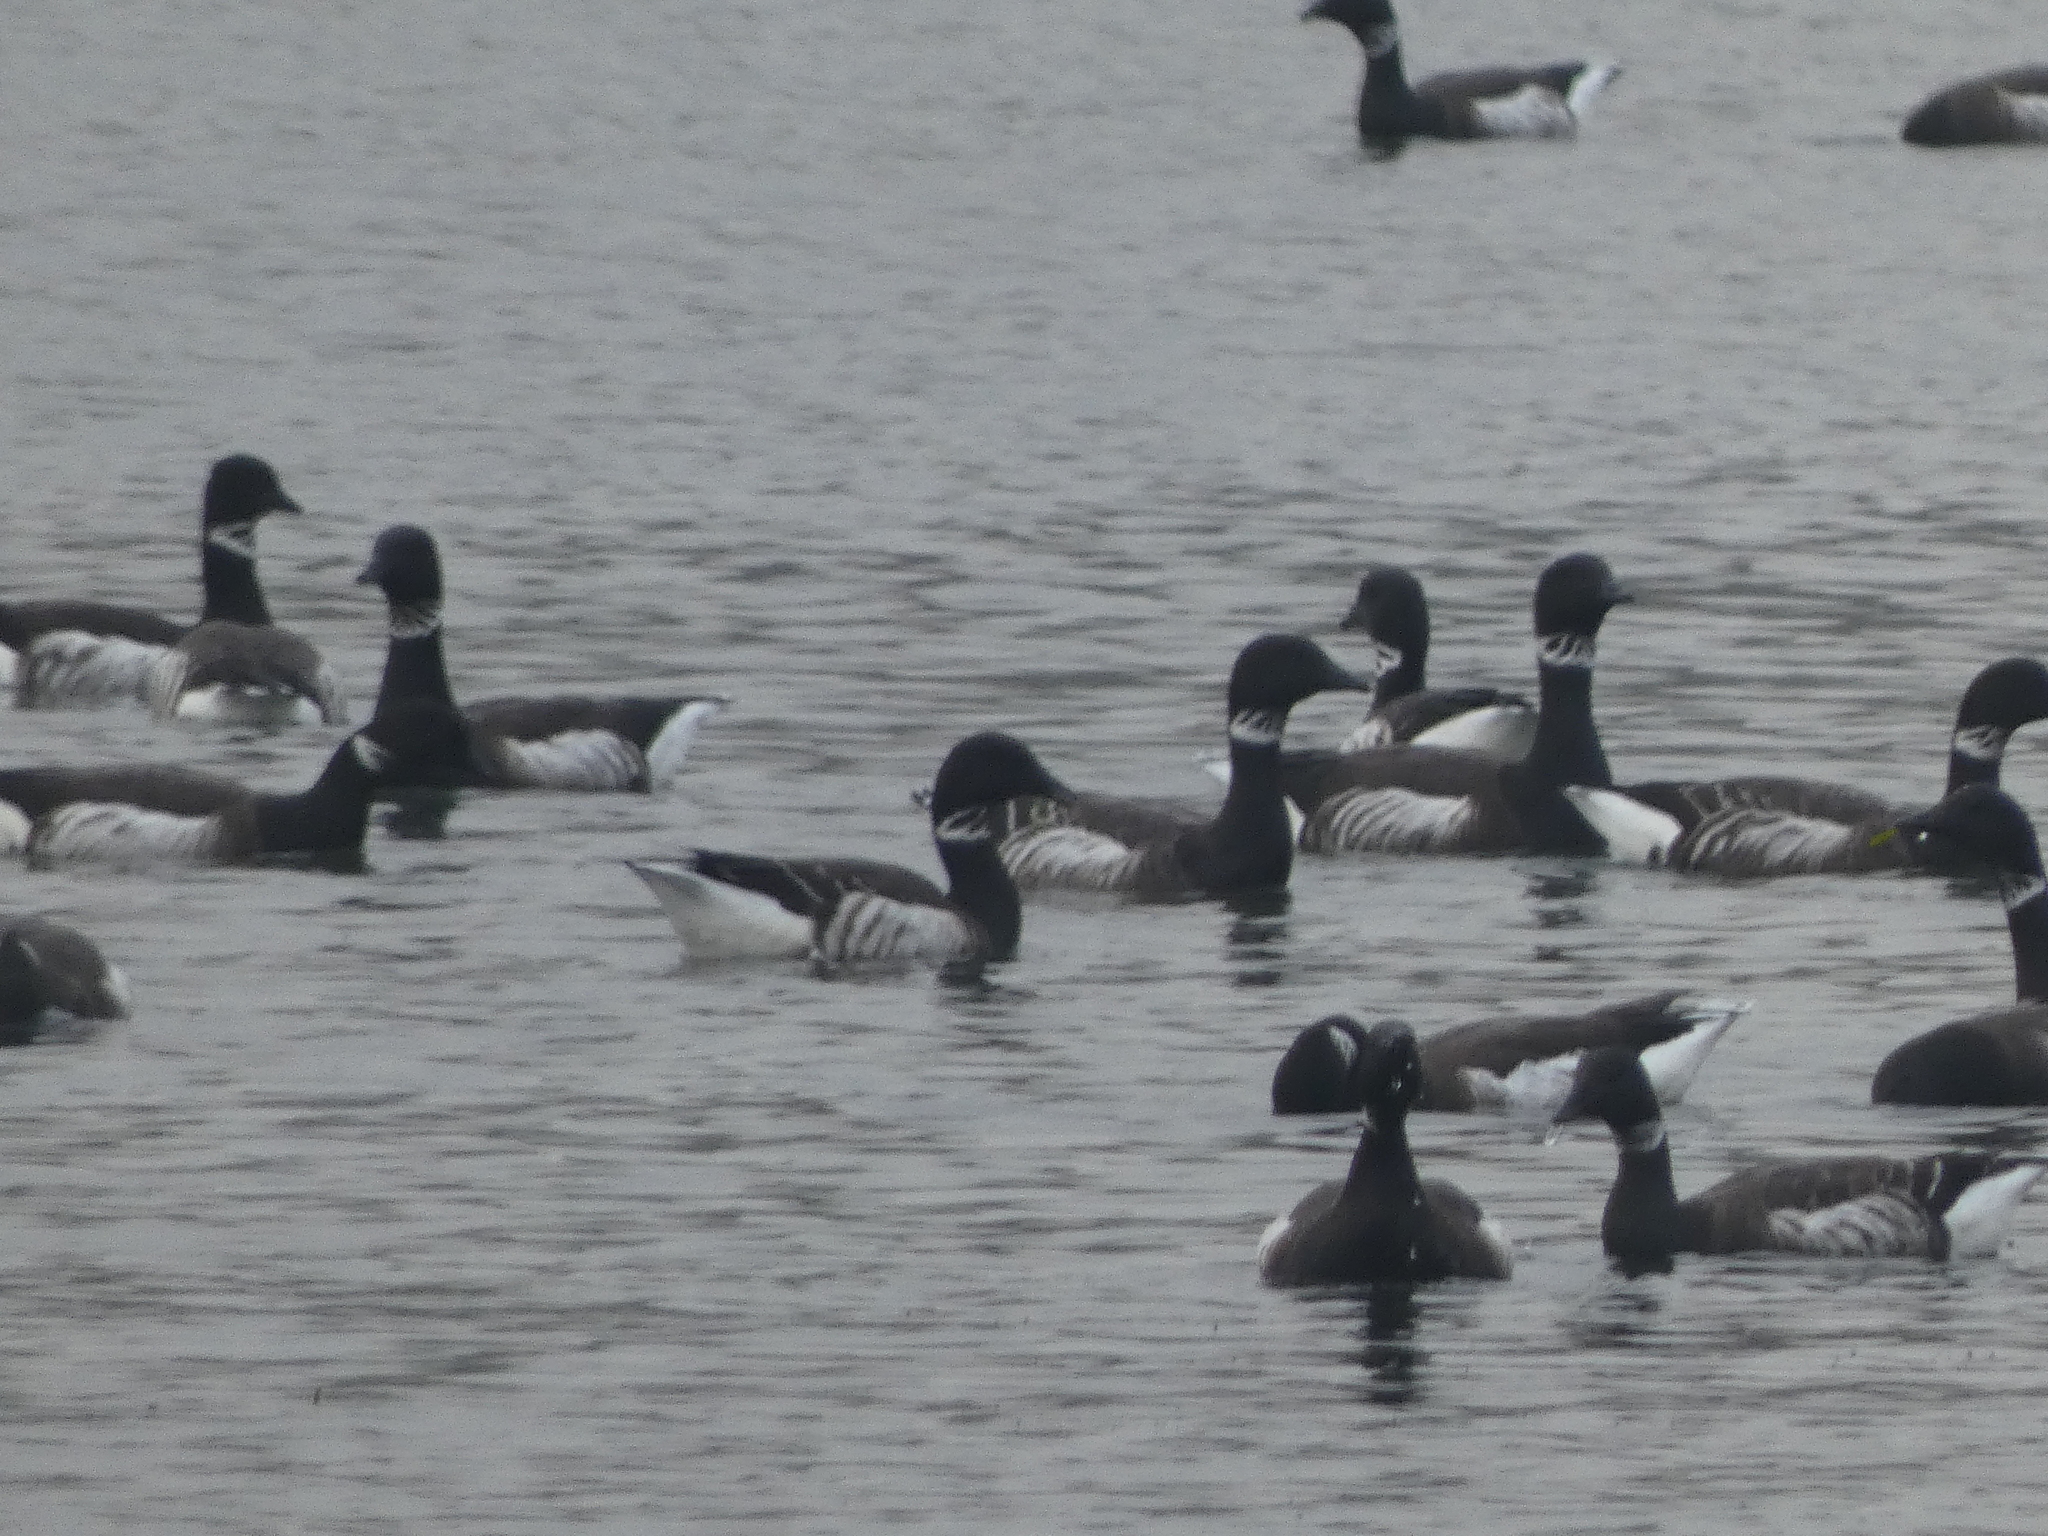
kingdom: Animalia
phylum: Chordata
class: Aves
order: Anseriformes
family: Anatidae
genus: Branta
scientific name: Branta bernicla
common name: Brant goose
